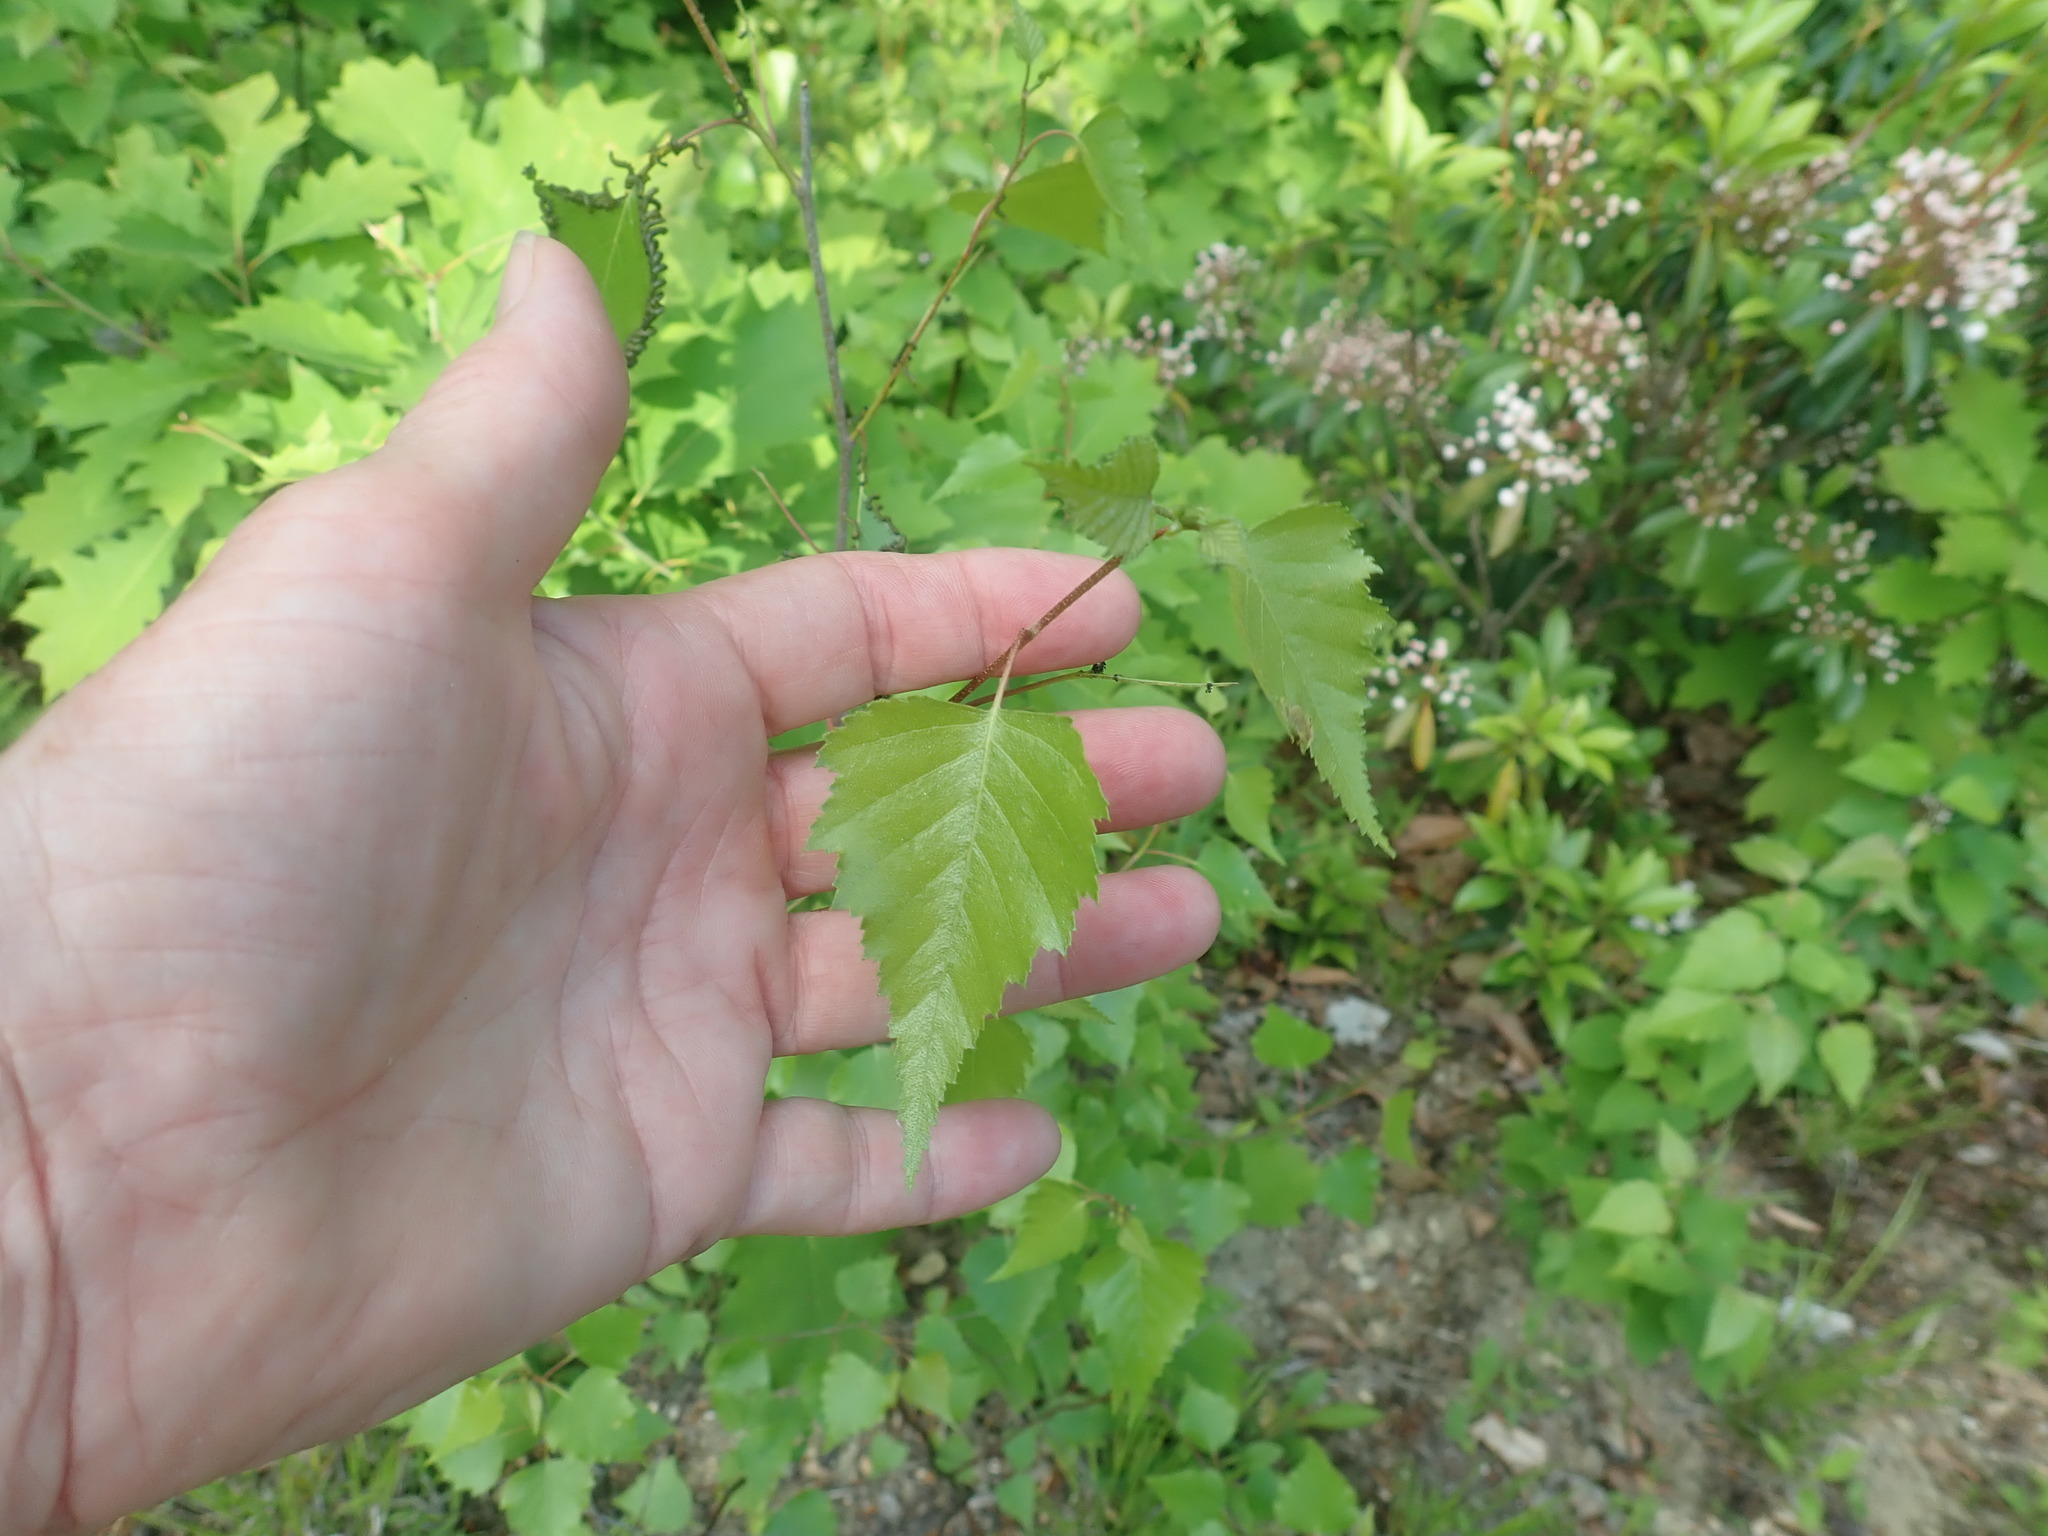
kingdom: Plantae
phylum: Tracheophyta
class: Magnoliopsida
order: Fagales
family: Betulaceae
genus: Betula
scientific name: Betula populifolia
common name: Fire birch
